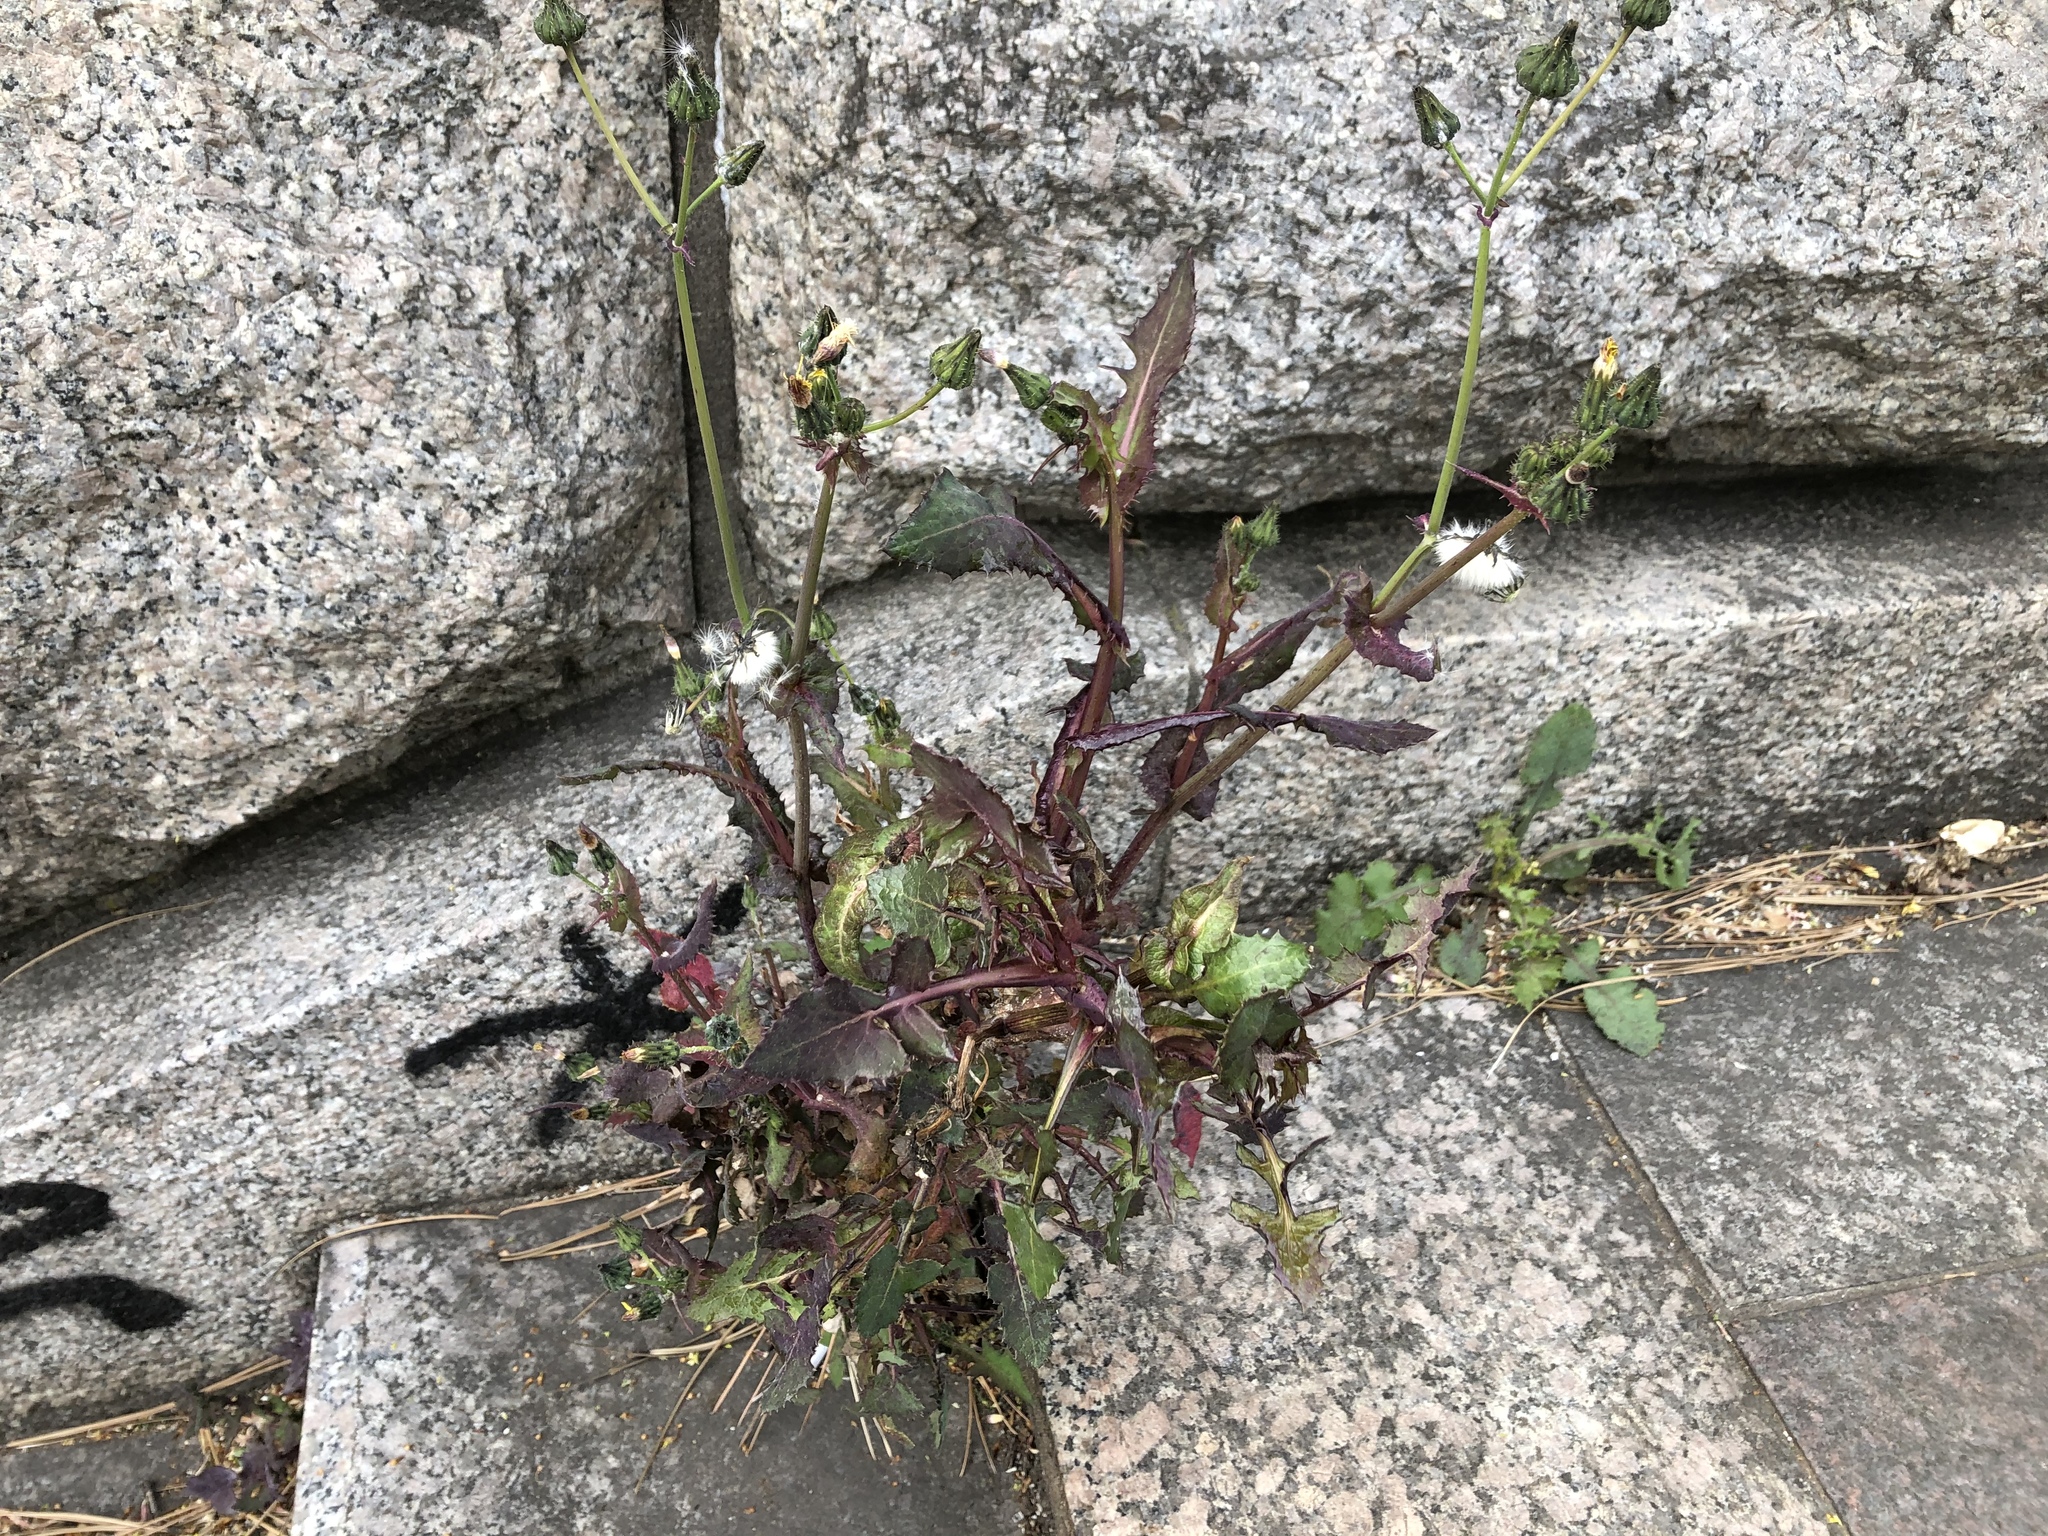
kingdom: Plantae
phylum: Tracheophyta
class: Magnoliopsida
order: Asterales
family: Asteraceae
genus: Sonchus
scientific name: Sonchus oleraceus
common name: Common sowthistle
